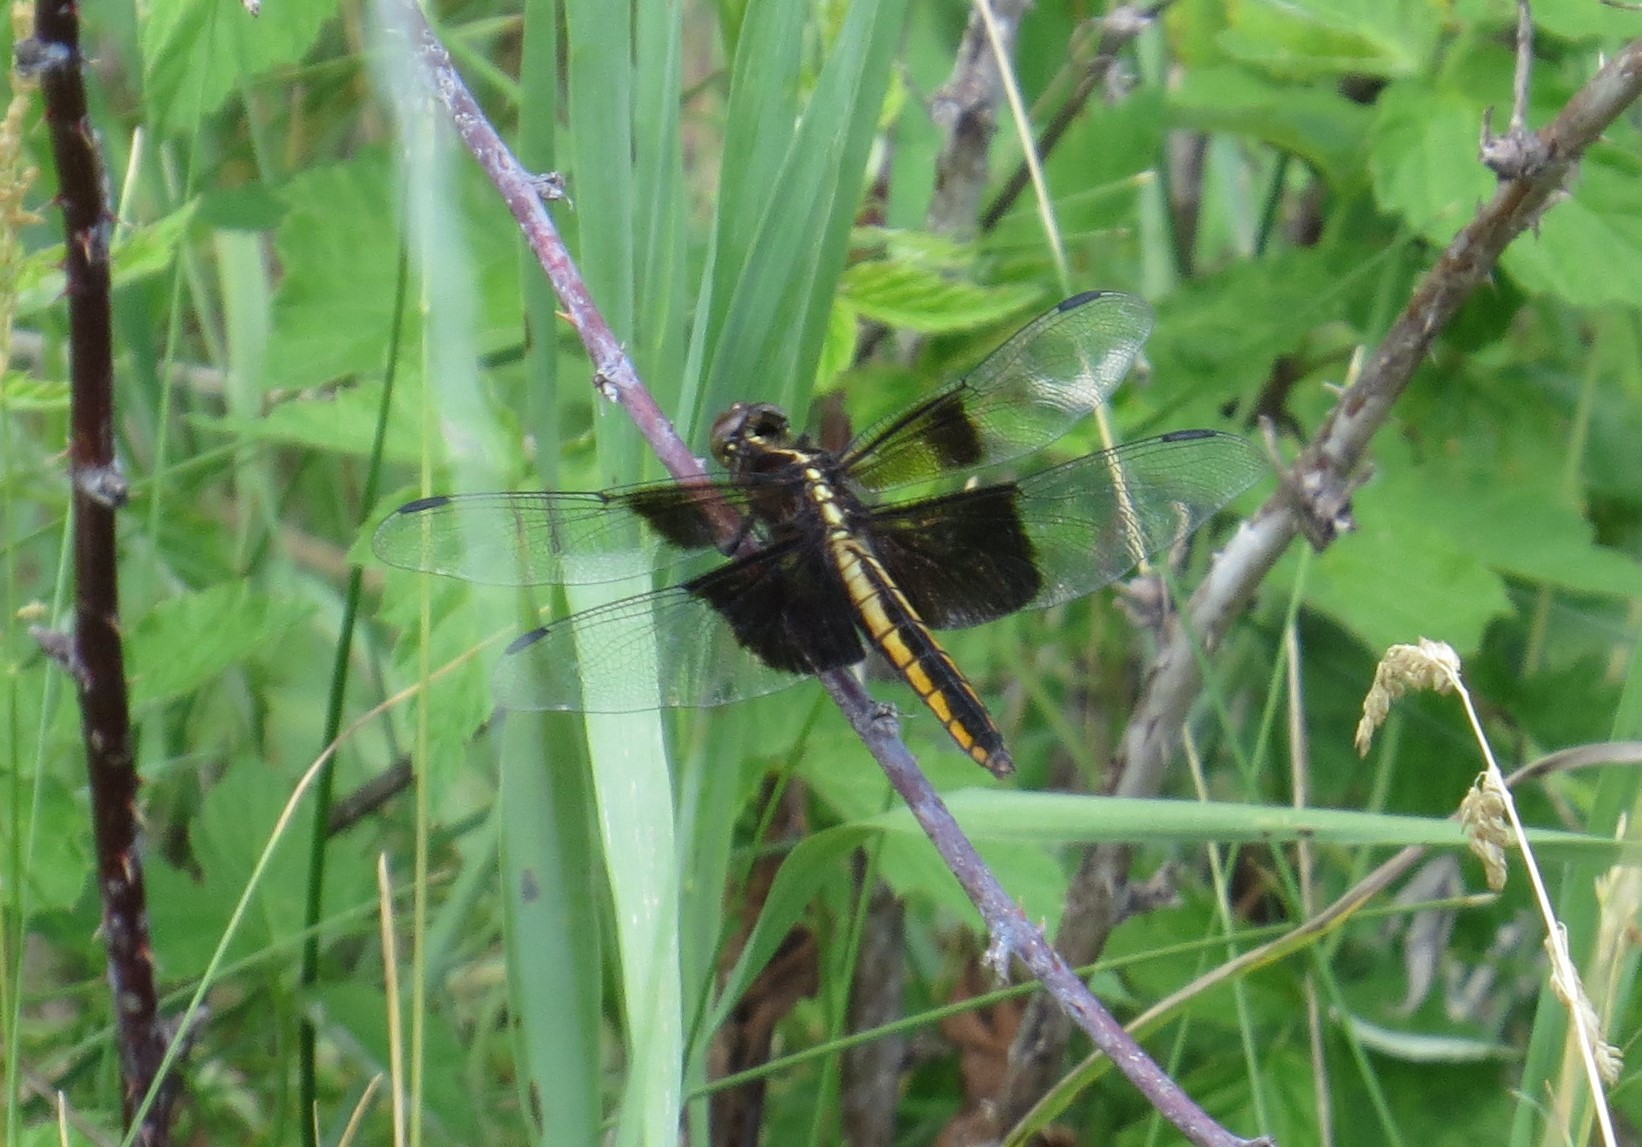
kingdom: Animalia
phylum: Arthropoda
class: Insecta
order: Odonata
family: Libellulidae
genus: Libellula
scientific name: Libellula luctuosa
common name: Widow skimmer
